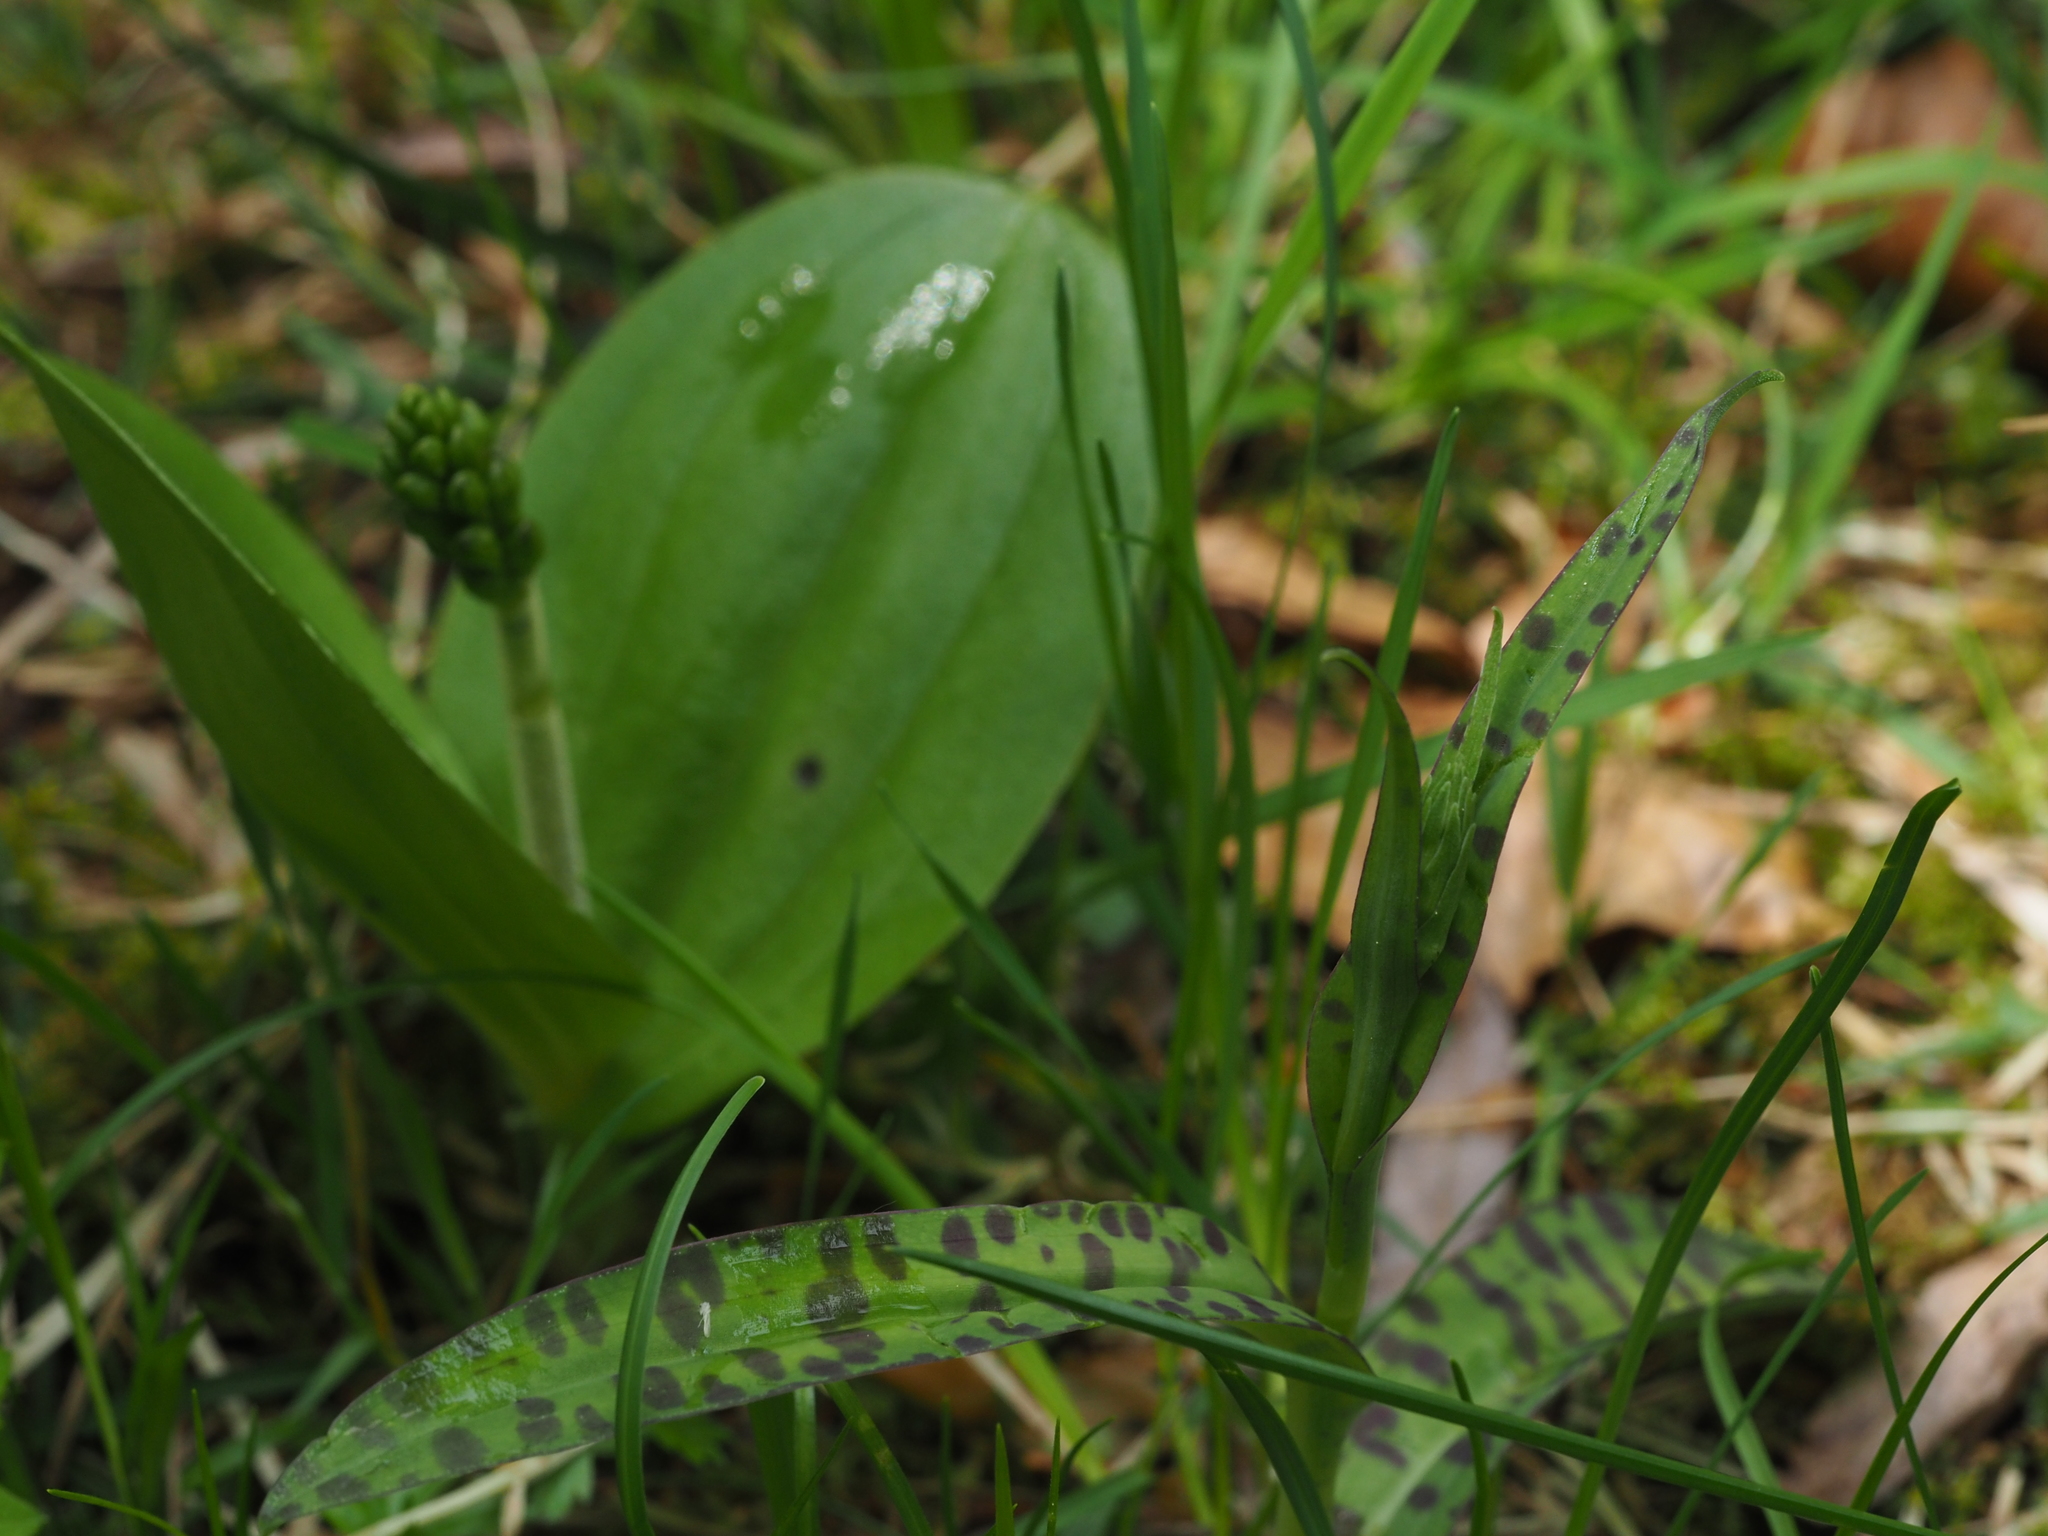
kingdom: Plantae
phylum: Tracheophyta
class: Liliopsida
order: Asparagales
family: Orchidaceae
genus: Dactylorhiza
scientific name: Dactylorhiza maculata
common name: Heath spotted-orchid
